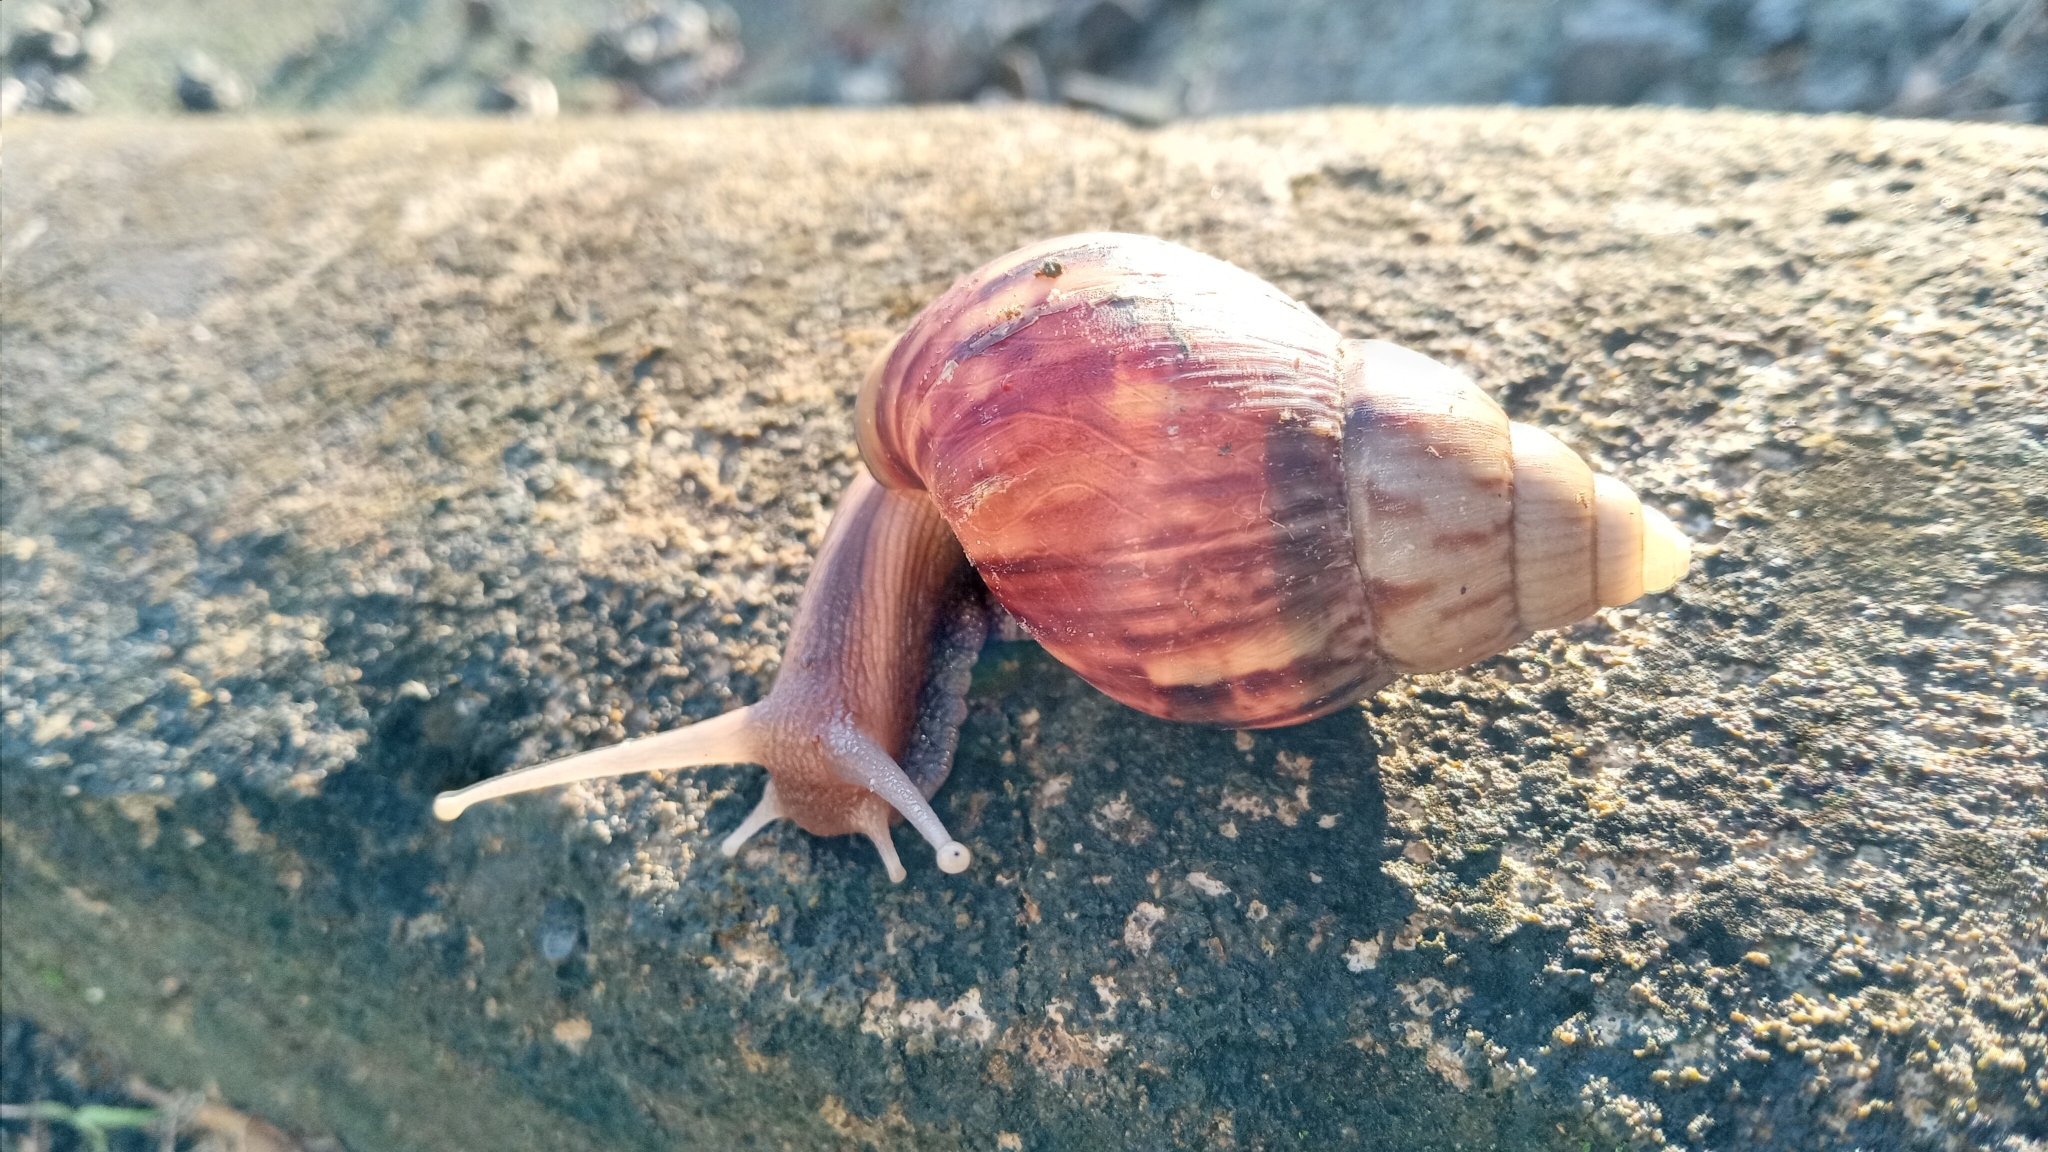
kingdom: Animalia
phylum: Mollusca
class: Gastropoda
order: Stylommatophora
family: Achatinidae
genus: Lissachatina
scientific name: Lissachatina fulica
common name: Giant african snail
